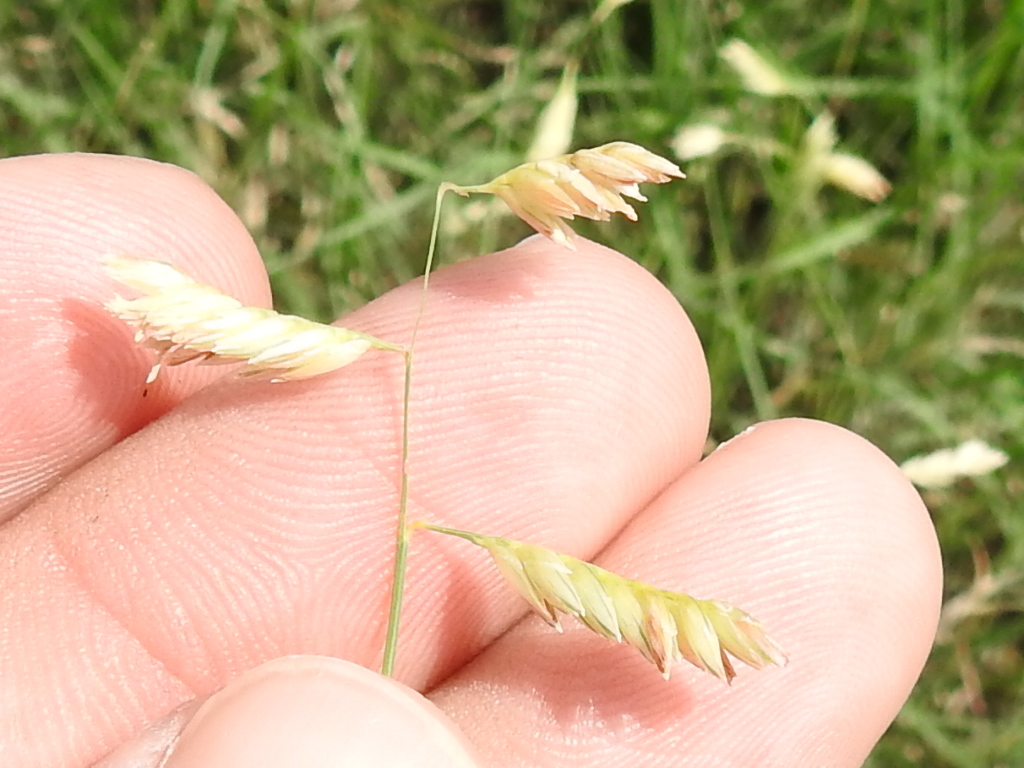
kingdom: Plantae
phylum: Tracheophyta
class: Liliopsida
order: Poales
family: Poaceae
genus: Bouteloua
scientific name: Bouteloua dactyloides
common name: Buffalo grass
